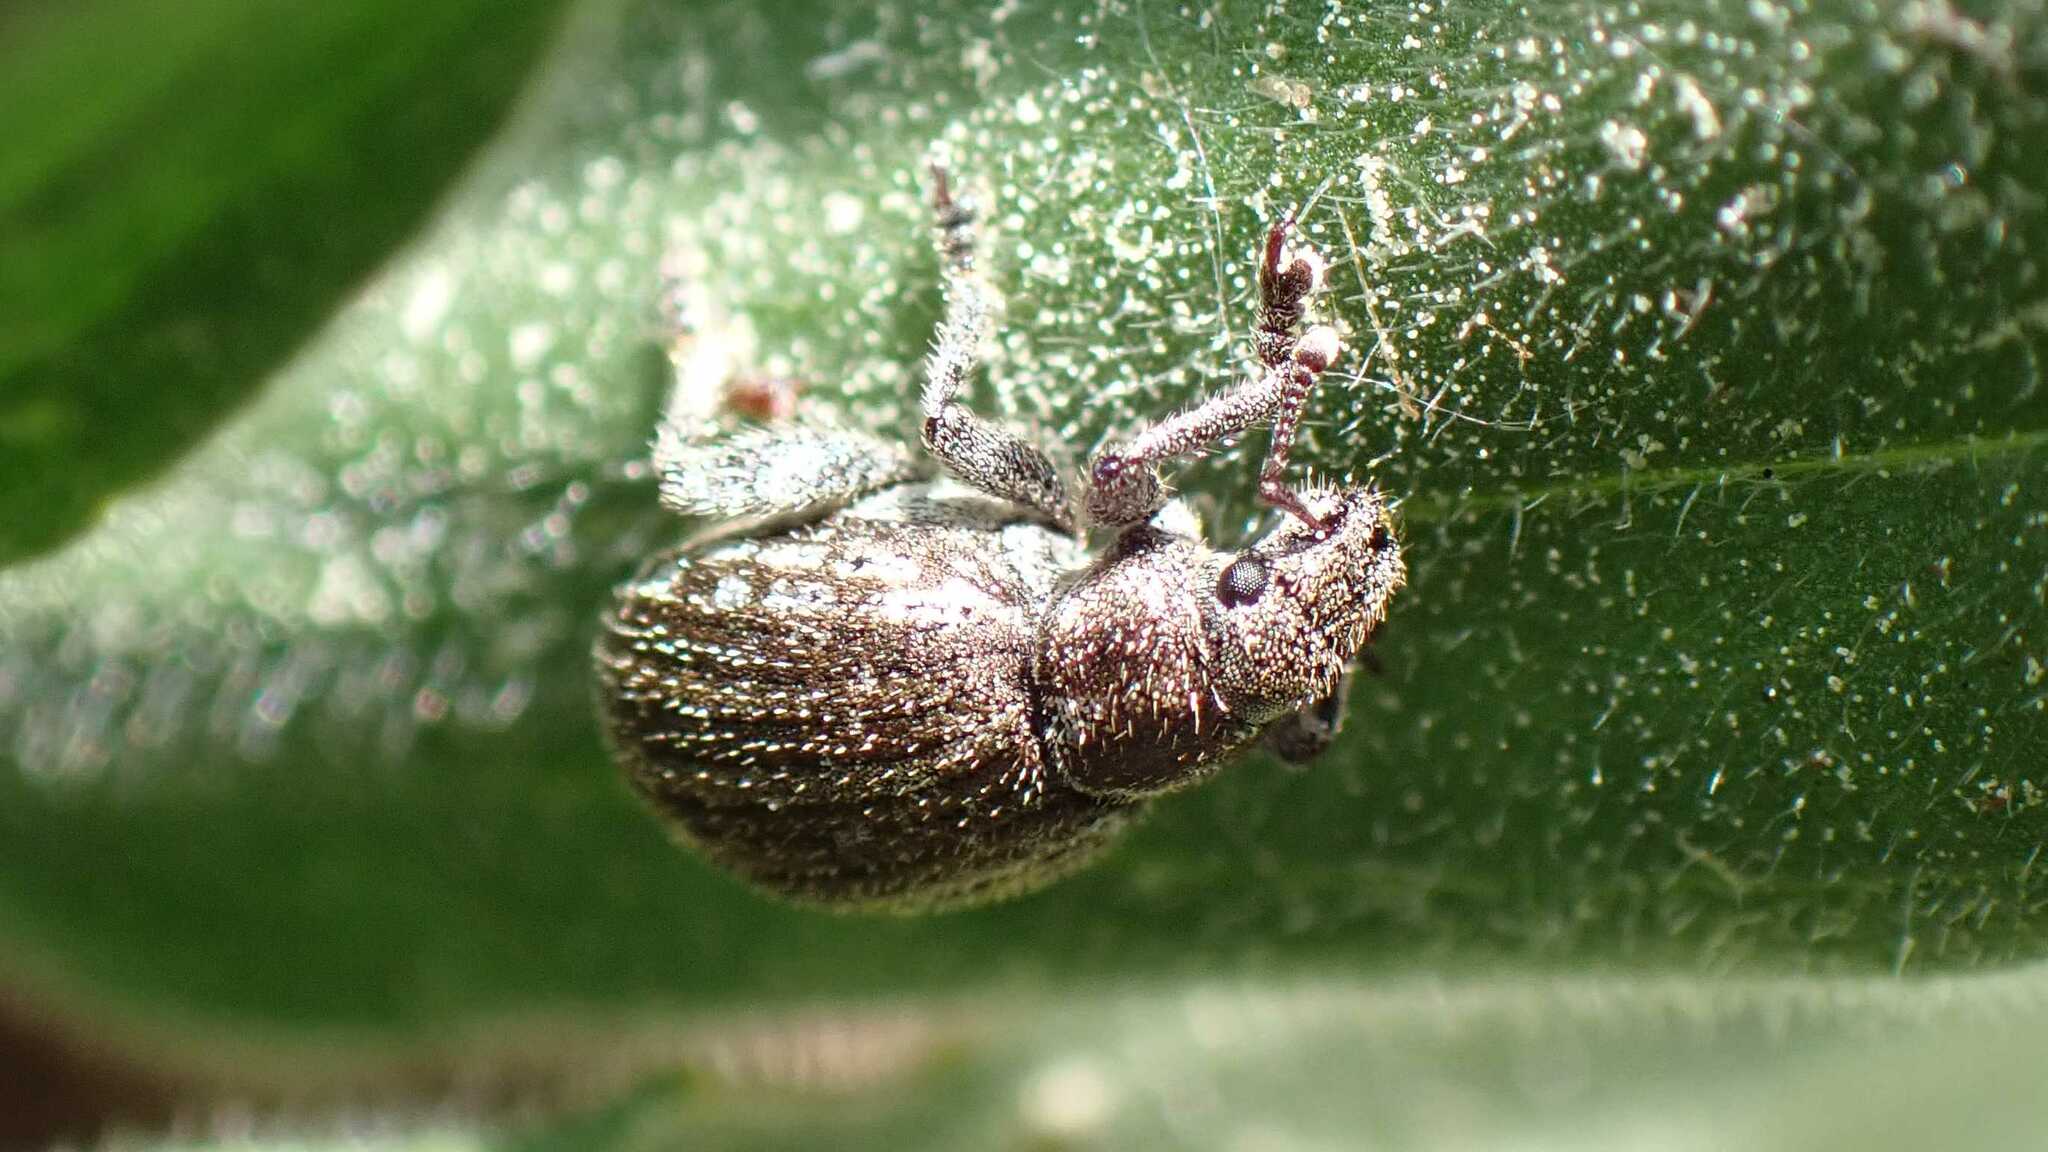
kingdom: Animalia
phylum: Arthropoda
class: Insecta
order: Coleoptera
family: Curculionidae
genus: Philopedon
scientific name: Philopedon plagiatum
